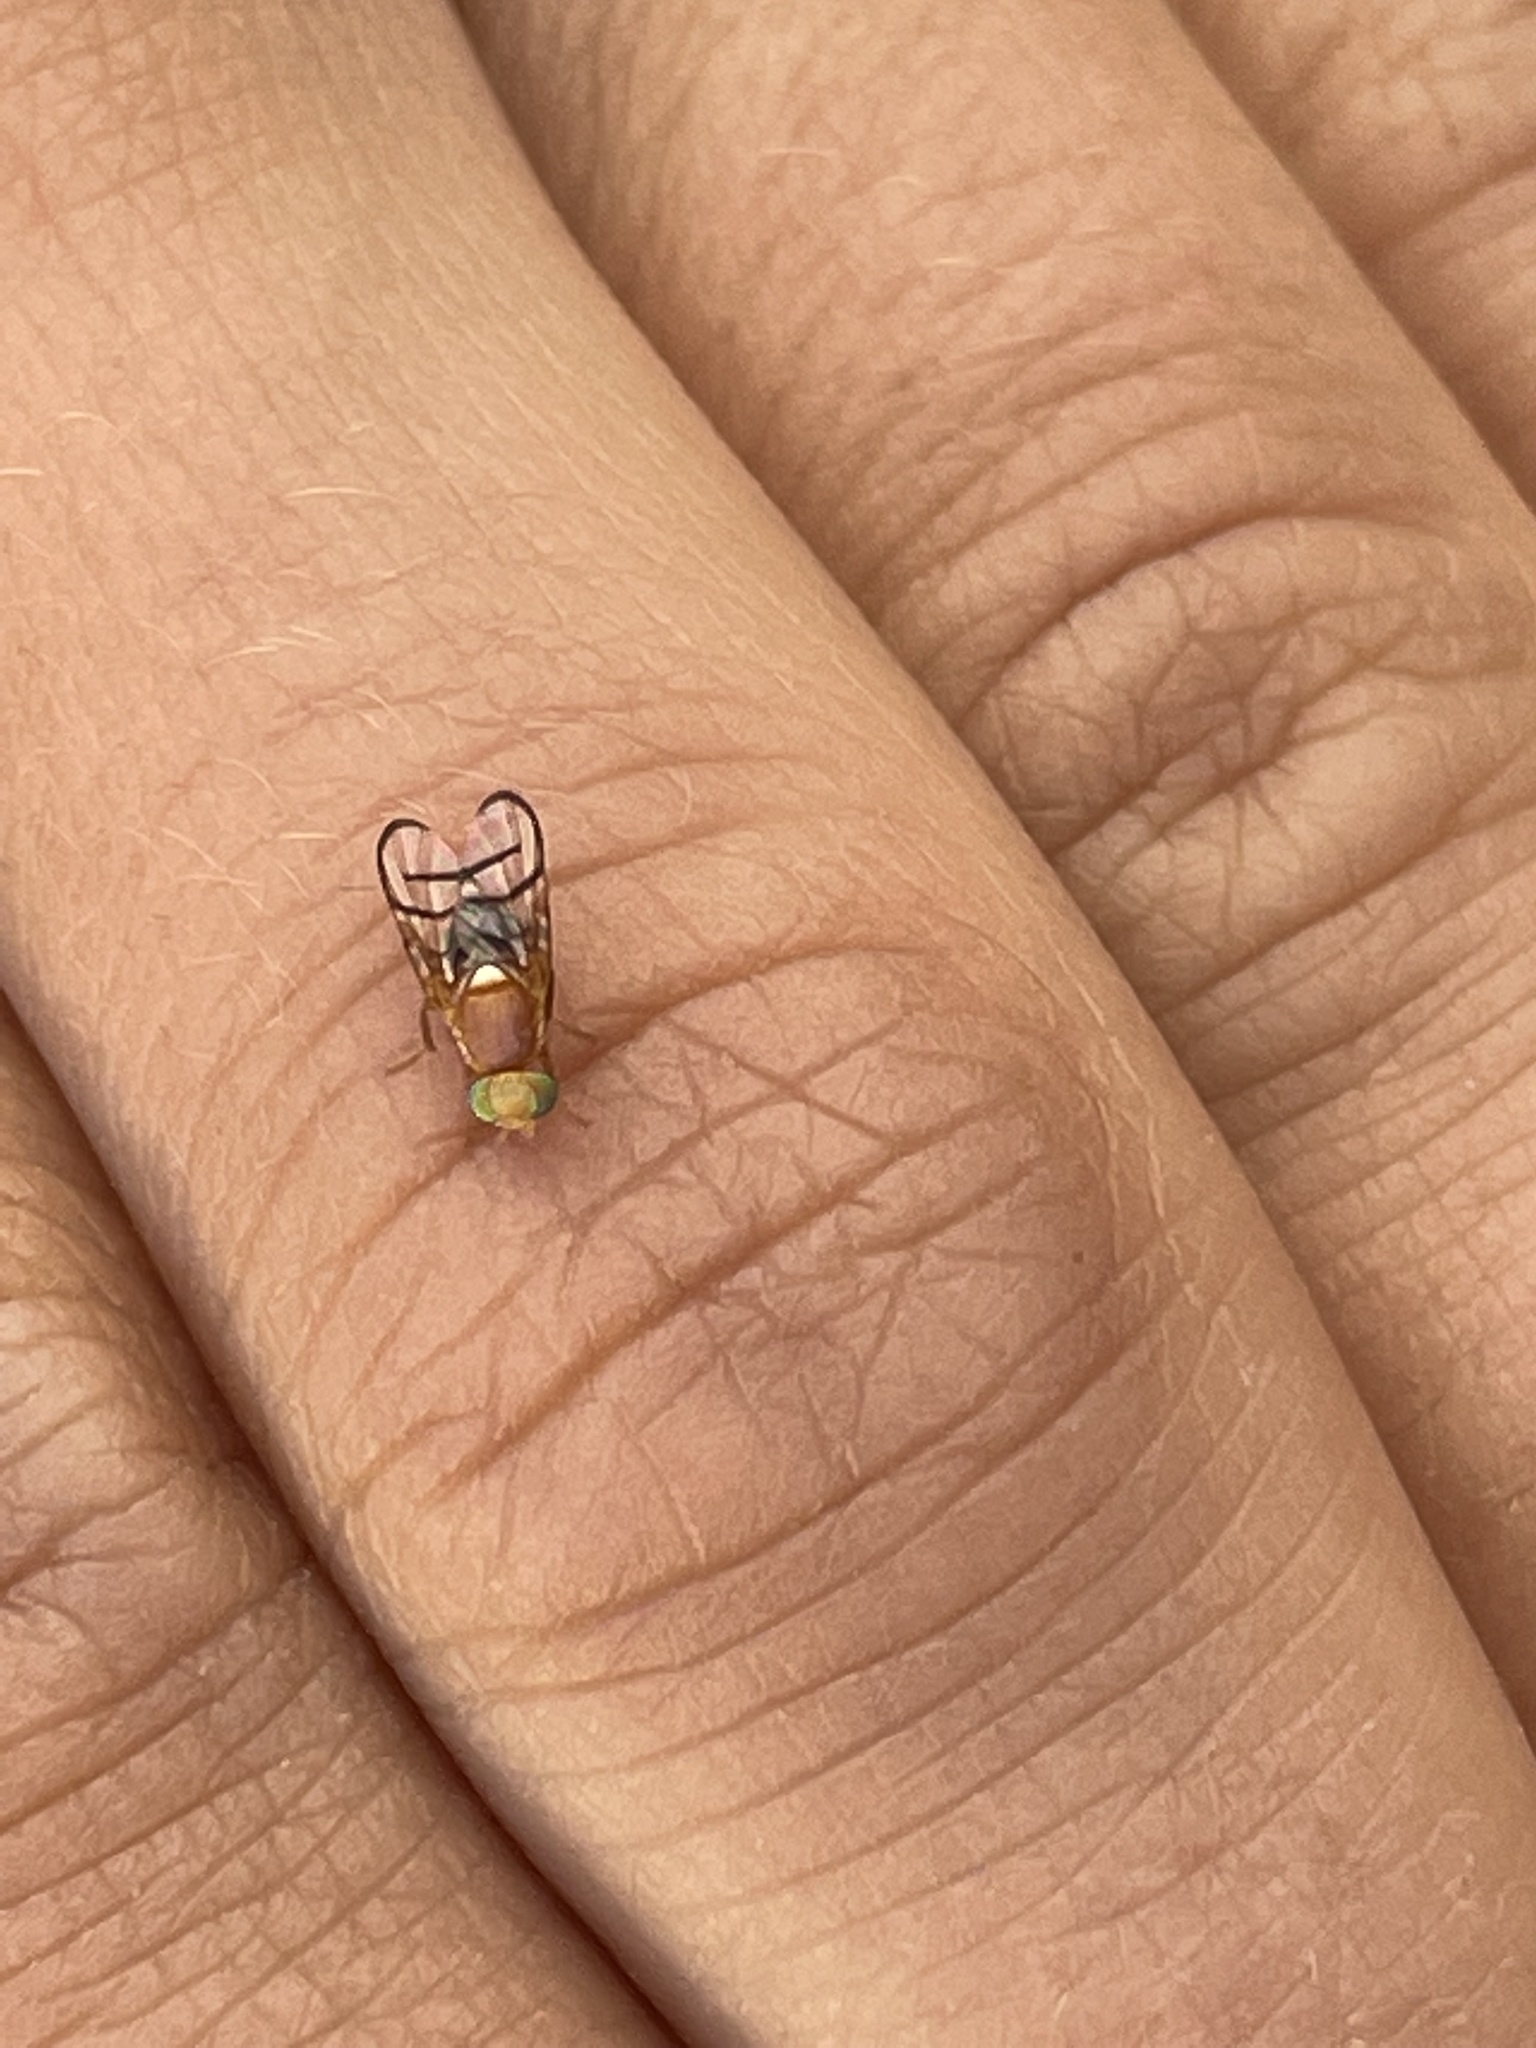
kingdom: Animalia
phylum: Arthropoda
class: Insecta
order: Diptera
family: Tephritidae
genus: Paraterellia
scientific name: Paraterellia superba
